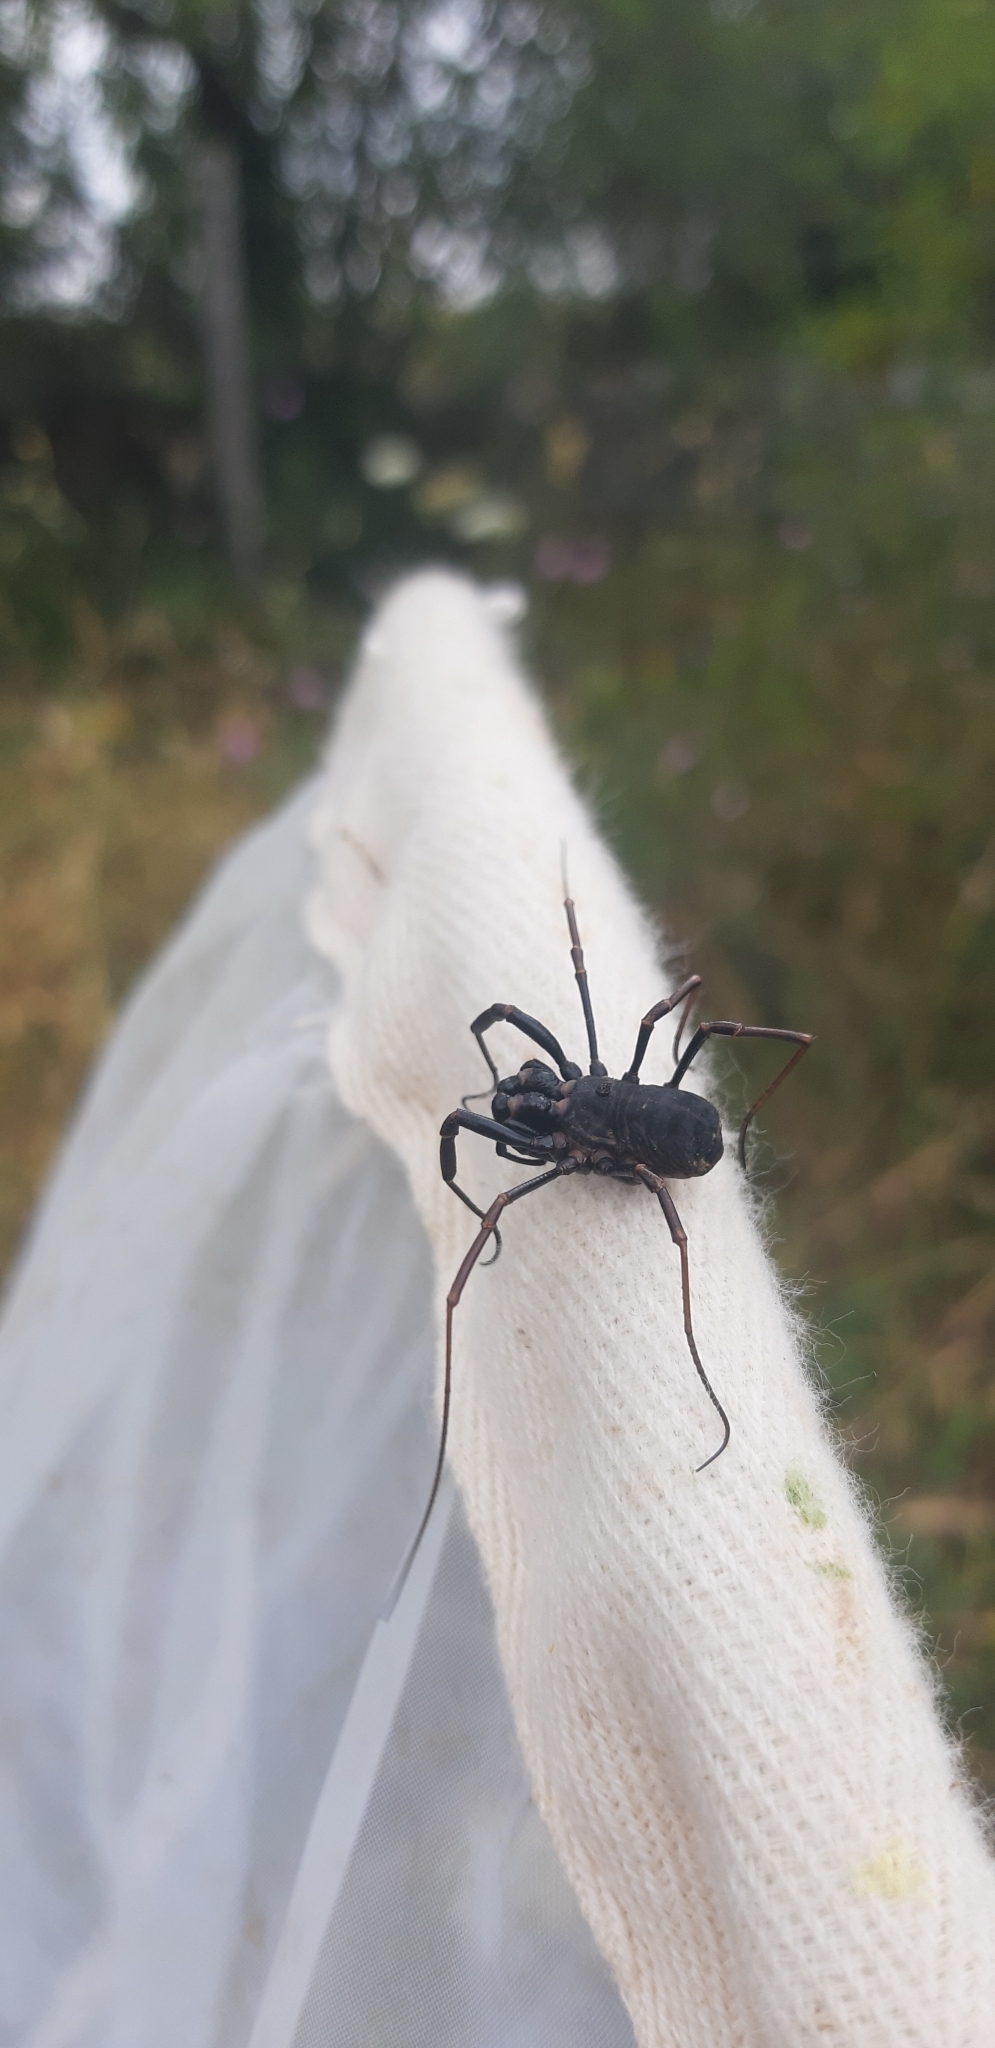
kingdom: Animalia
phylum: Arthropoda
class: Arachnida
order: Opiliones
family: Phalangiidae
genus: Zachaeus
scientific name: Zachaeus crista
